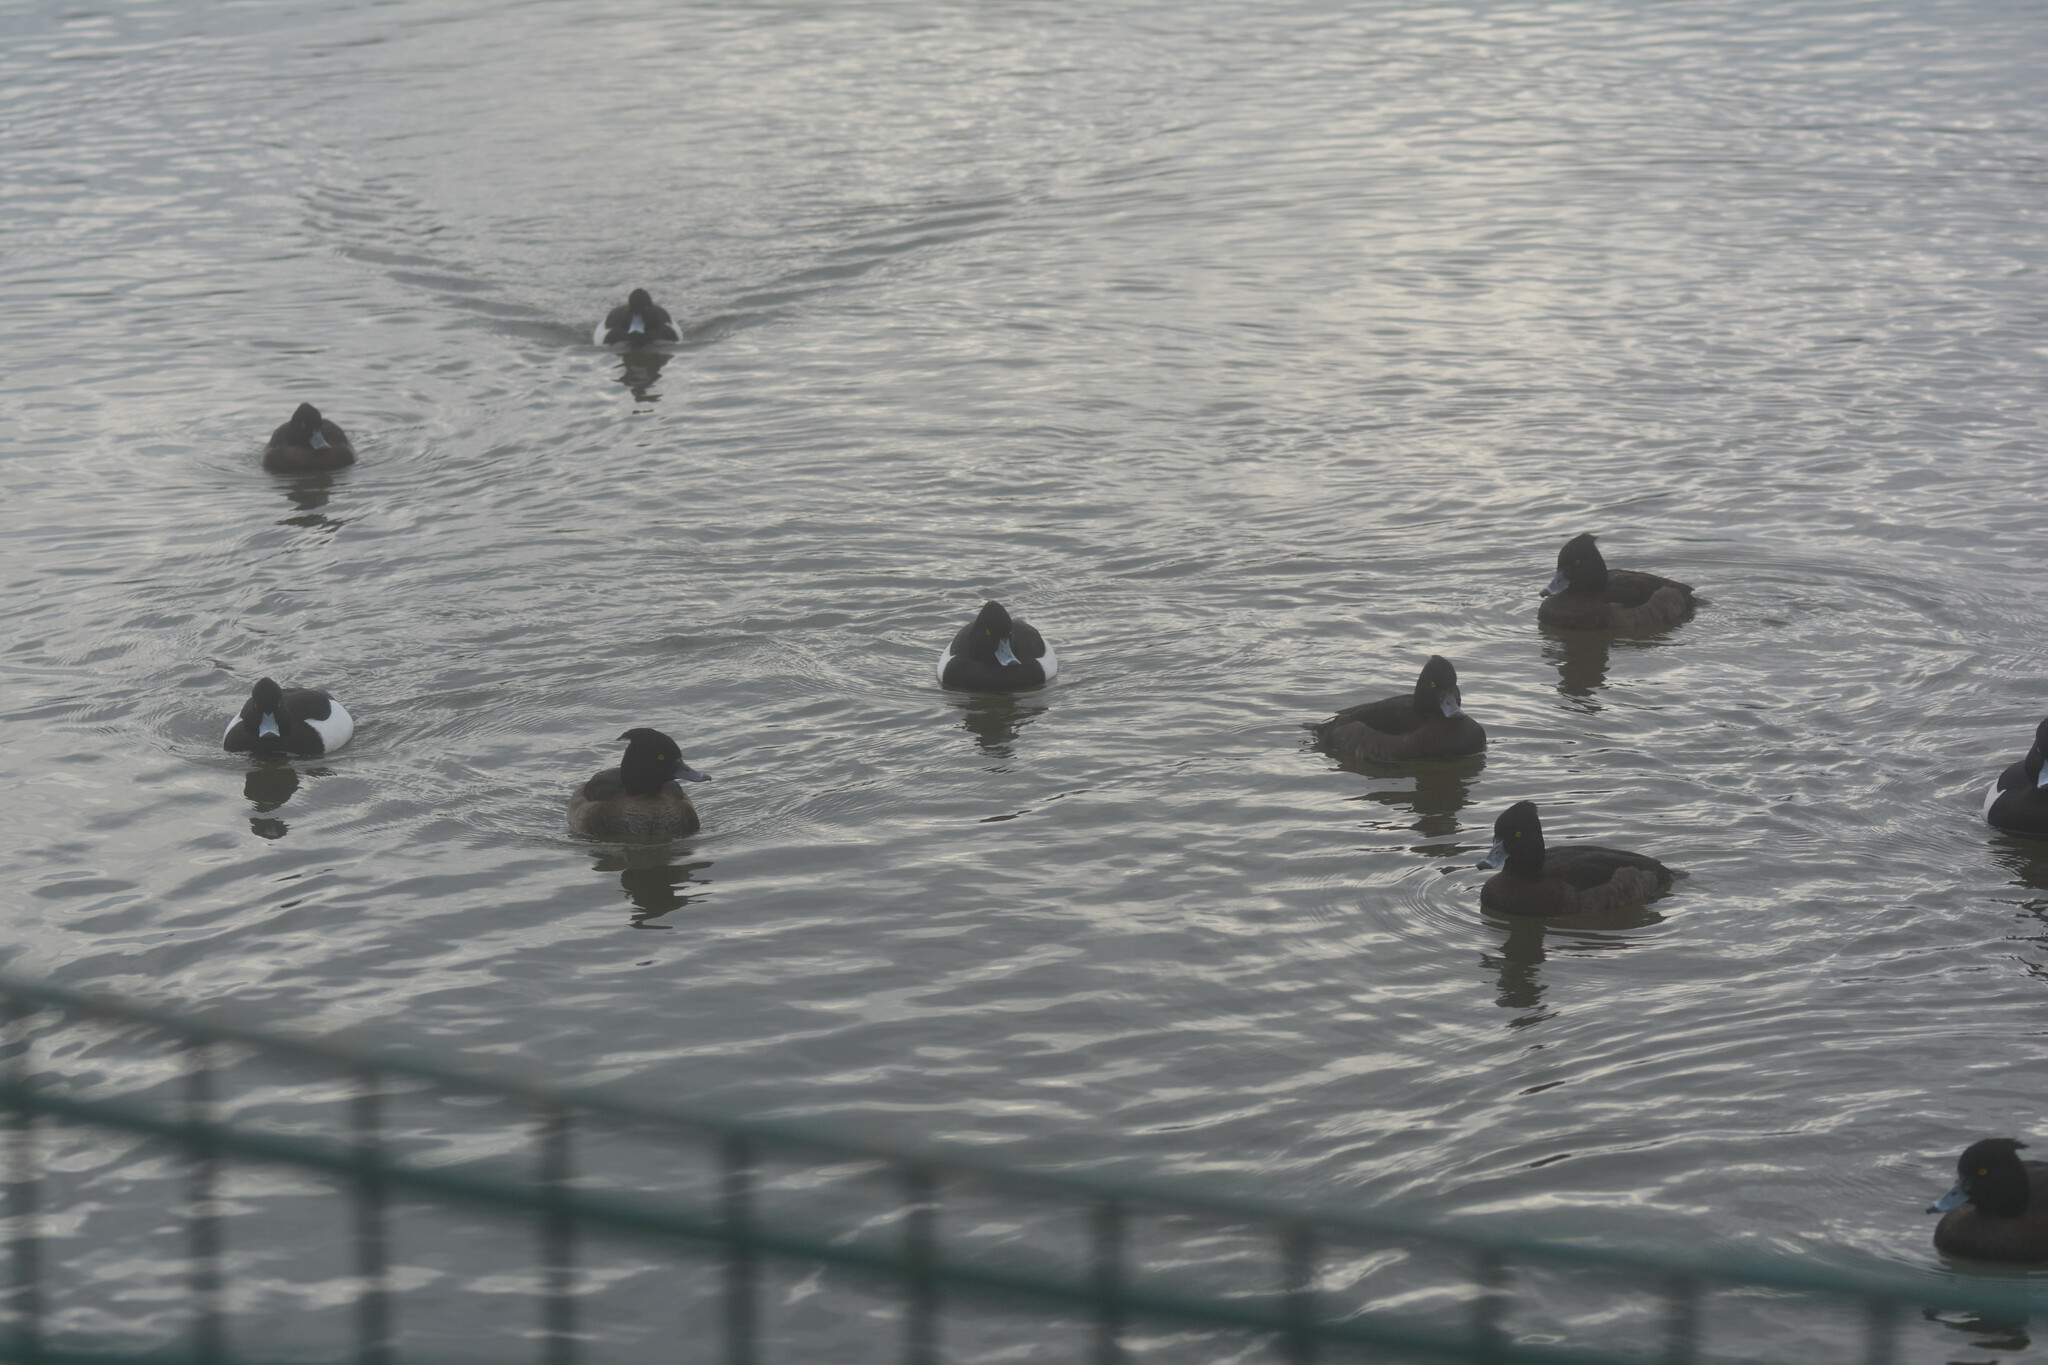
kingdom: Animalia
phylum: Chordata
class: Aves
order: Anseriformes
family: Anatidae
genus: Aythya
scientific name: Aythya fuligula
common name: Tufted duck
